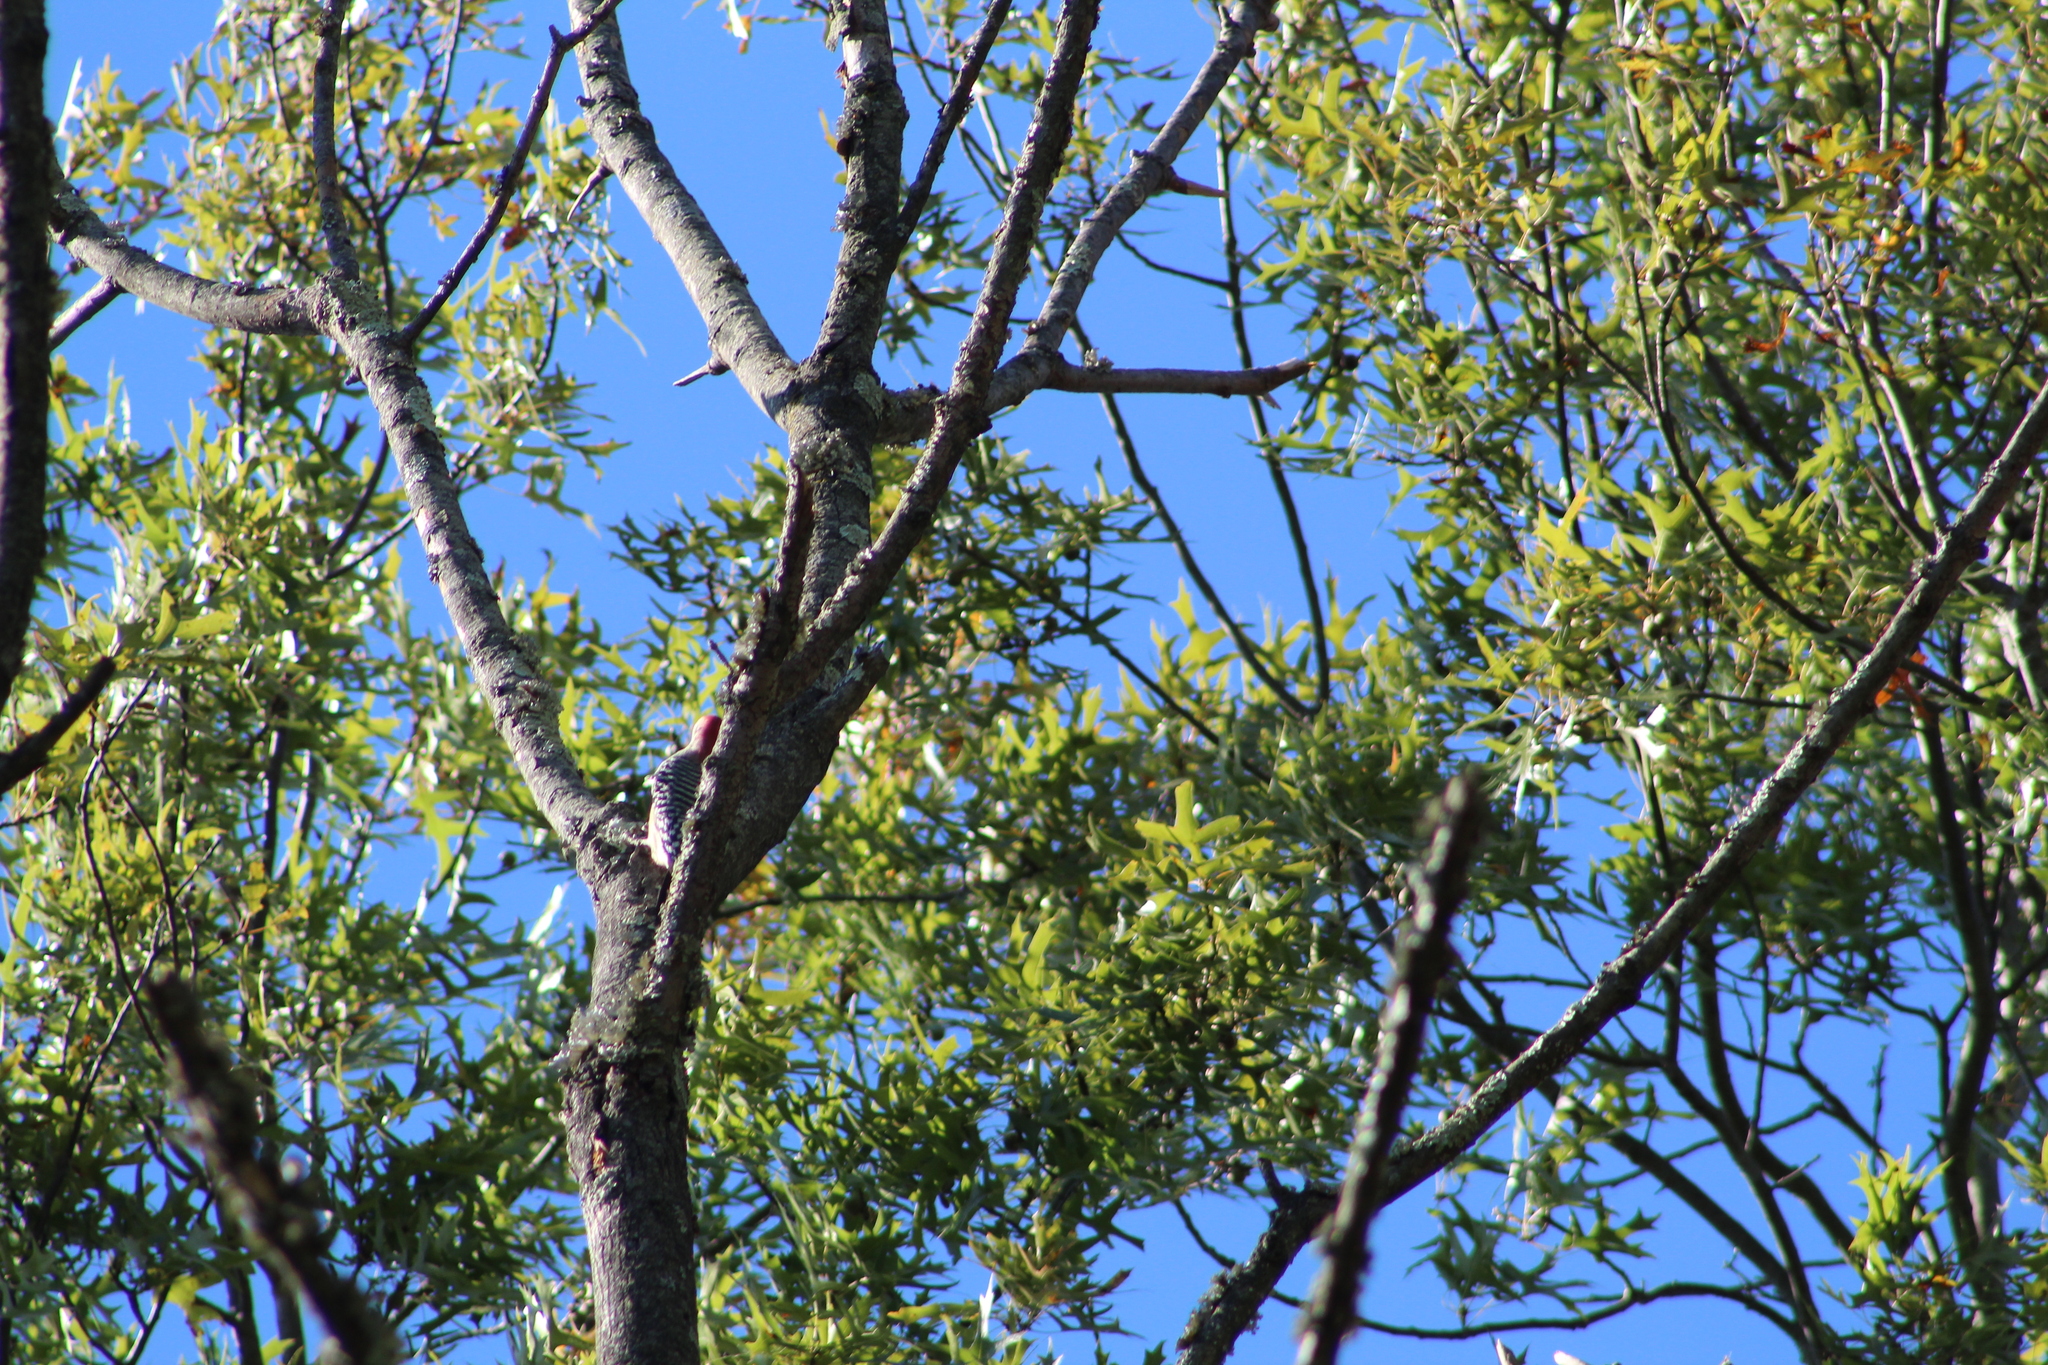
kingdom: Animalia
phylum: Chordata
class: Aves
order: Piciformes
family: Picidae
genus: Melanerpes
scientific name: Melanerpes carolinus
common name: Red-bellied woodpecker
